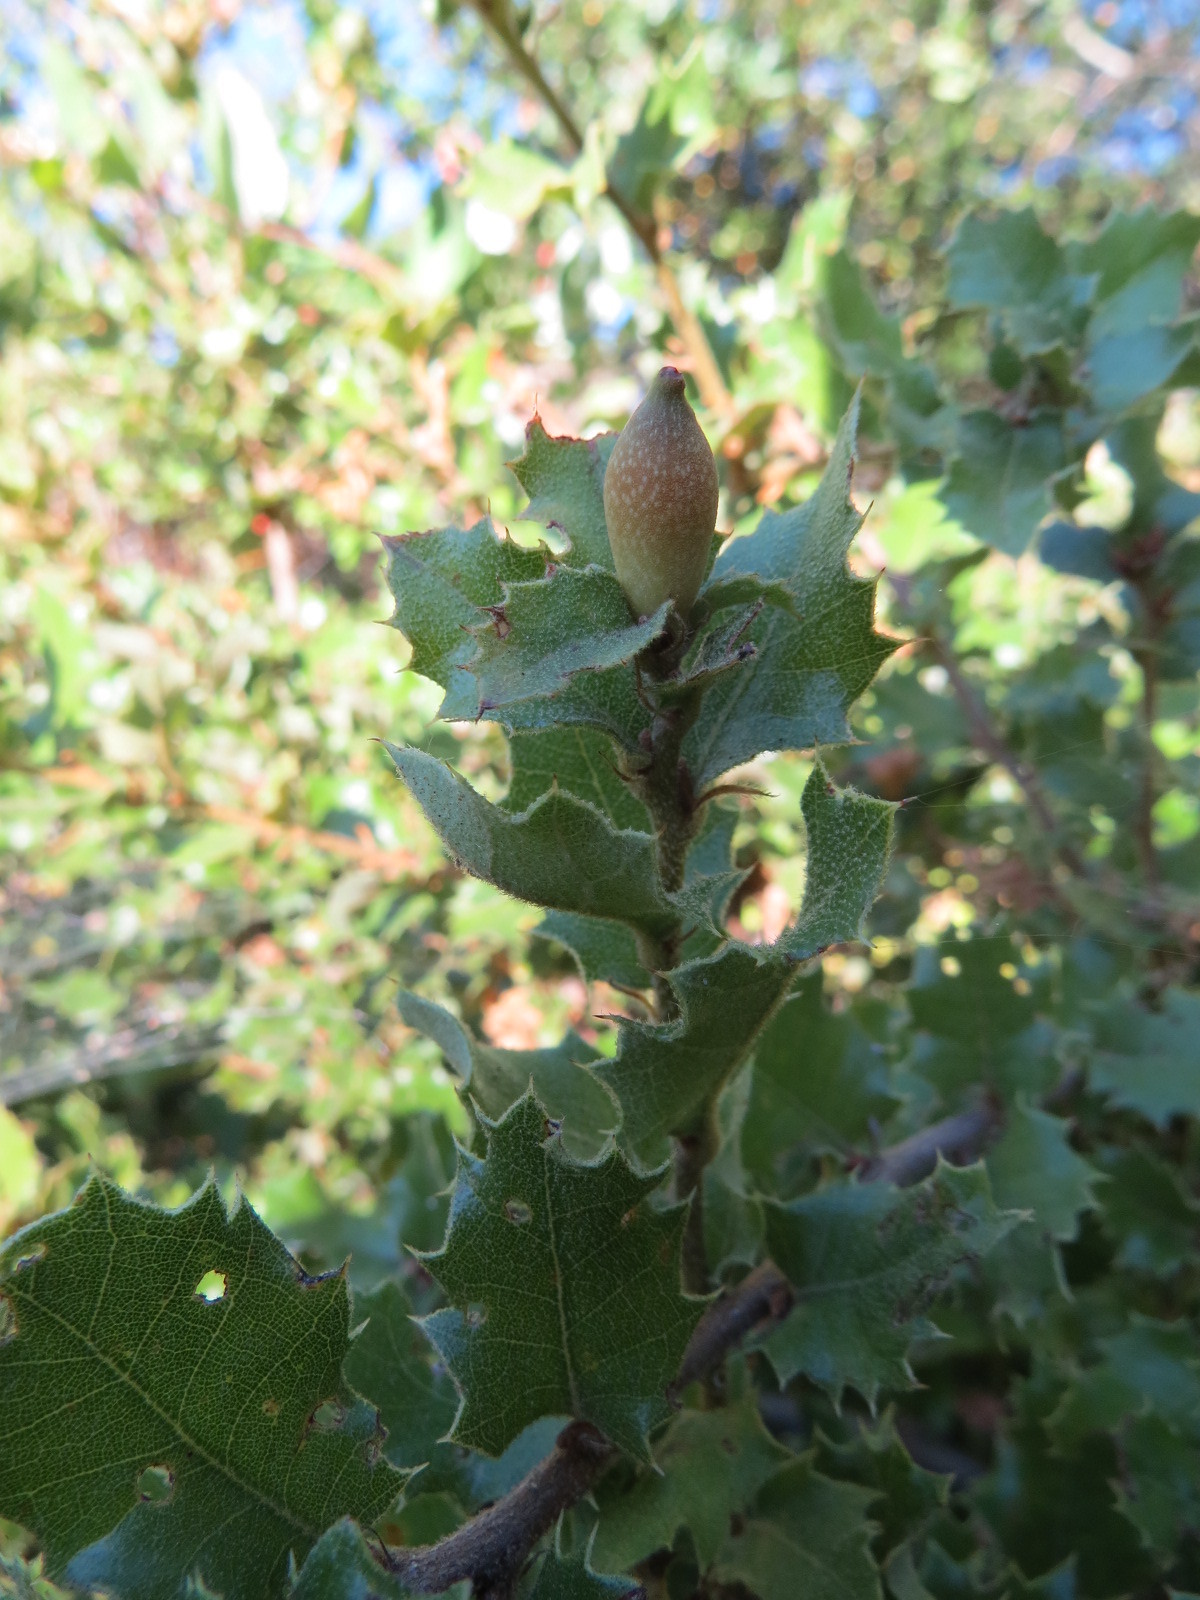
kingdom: Animalia
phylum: Arthropoda
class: Insecta
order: Hymenoptera
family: Cynipidae
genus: Heteroecus
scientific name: Heteroecus pacificus
